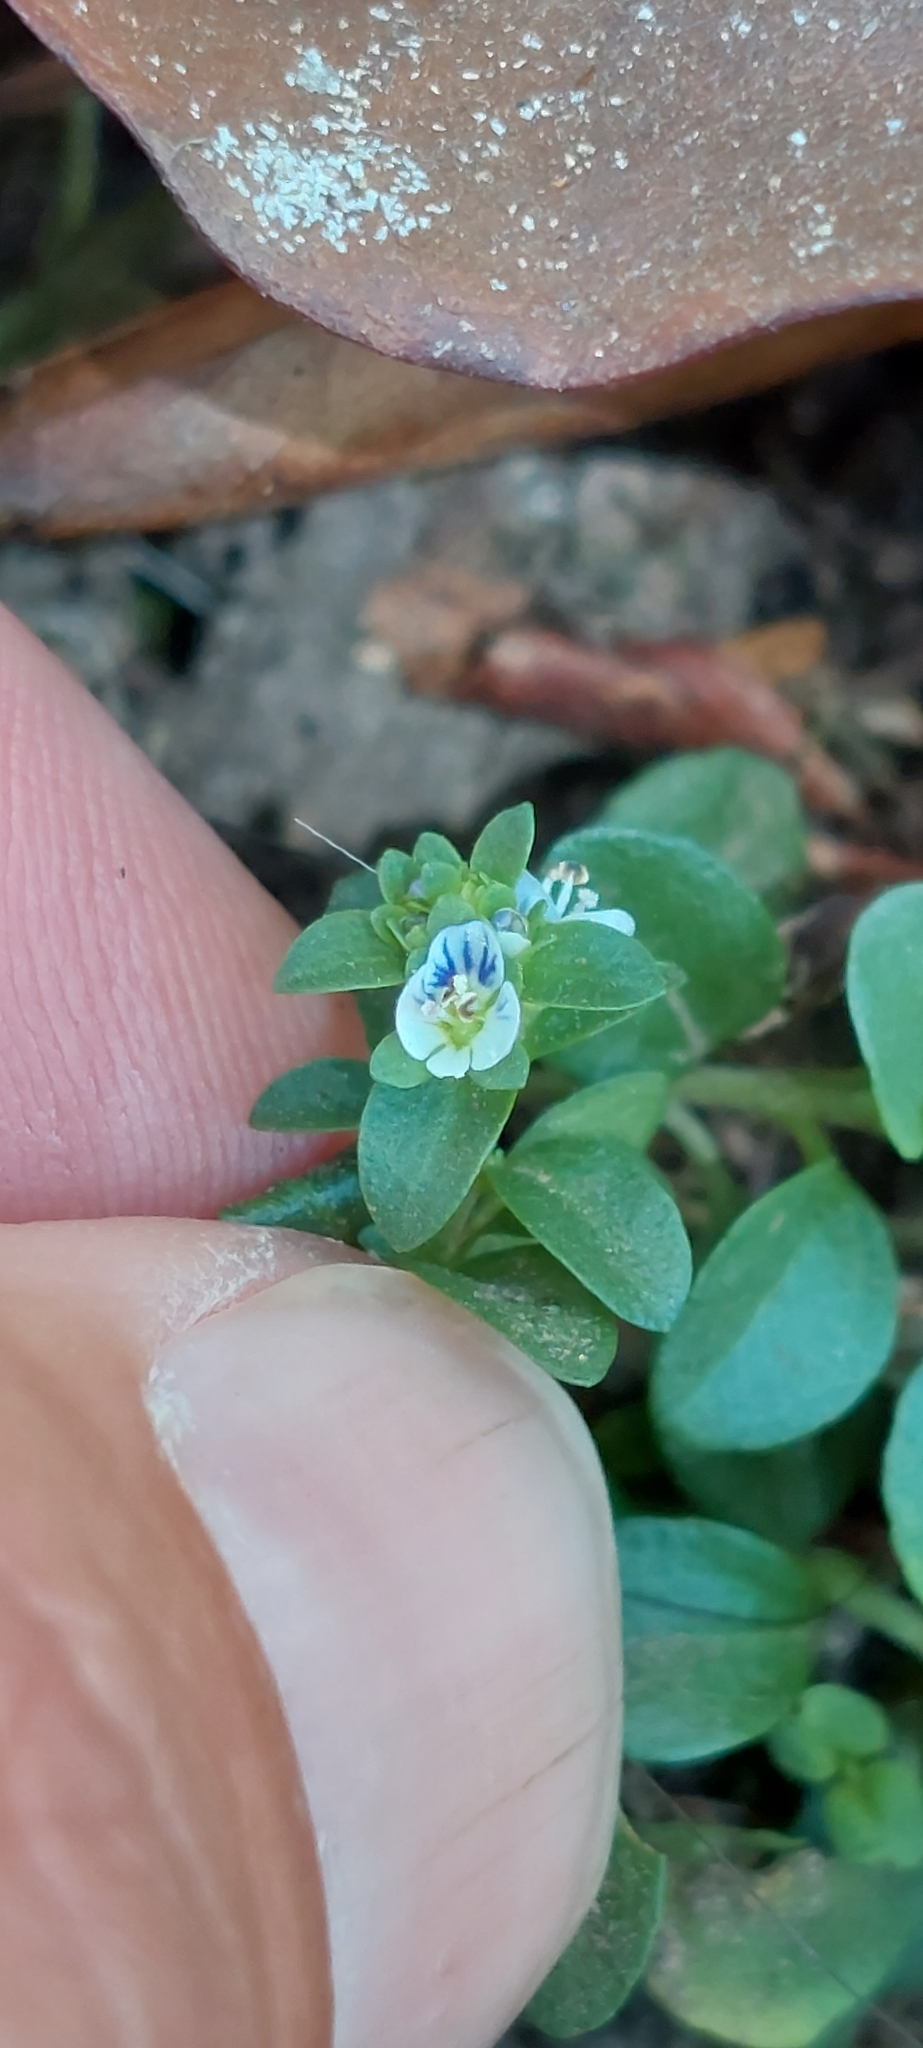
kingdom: Plantae
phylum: Tracheophyta
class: Magnoliopsida
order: Lamiales
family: Plantaginaceae
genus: Veronica
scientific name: Veronica serpyllifolia
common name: Thyme-leaved speedwell
